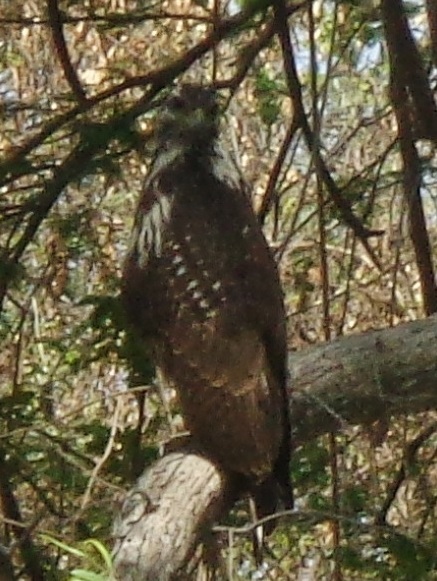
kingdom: Animalia
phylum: Chordata
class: Aves
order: Accipitriformes
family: Accipitridae
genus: Buteogallus
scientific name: Buteogallus anthracinus
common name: Common black hawk
